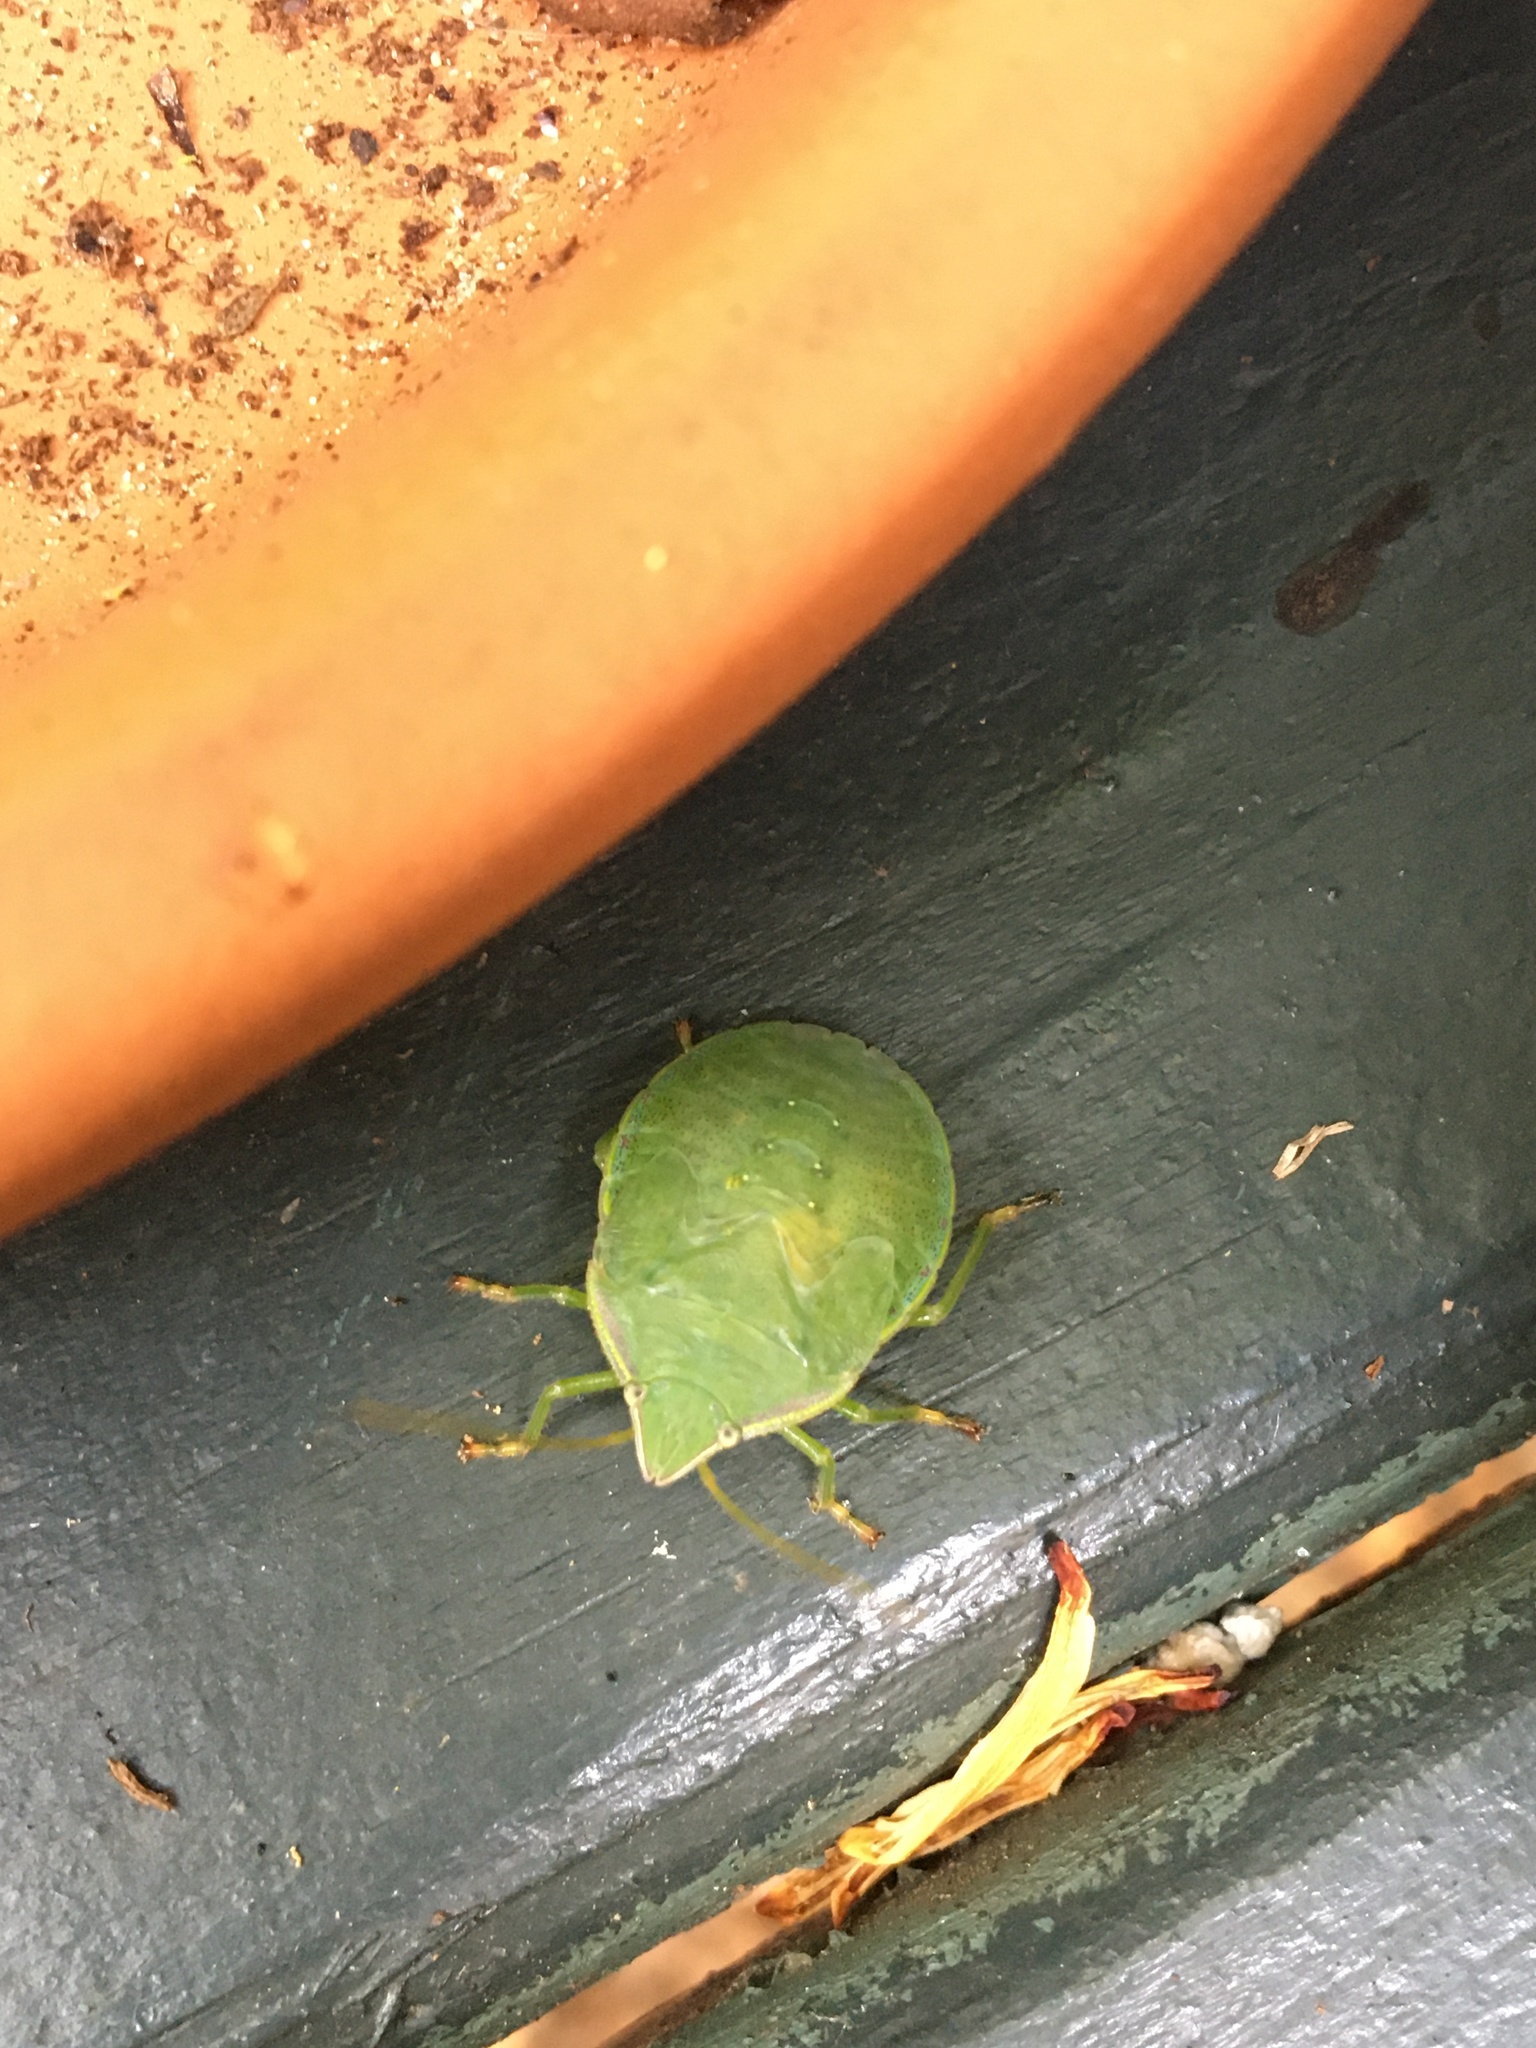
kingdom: Animalia
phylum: Arthropoda
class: Insecta
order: Hemiptera
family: Pentatomidae
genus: Loxa
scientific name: Loxa flavicollis
